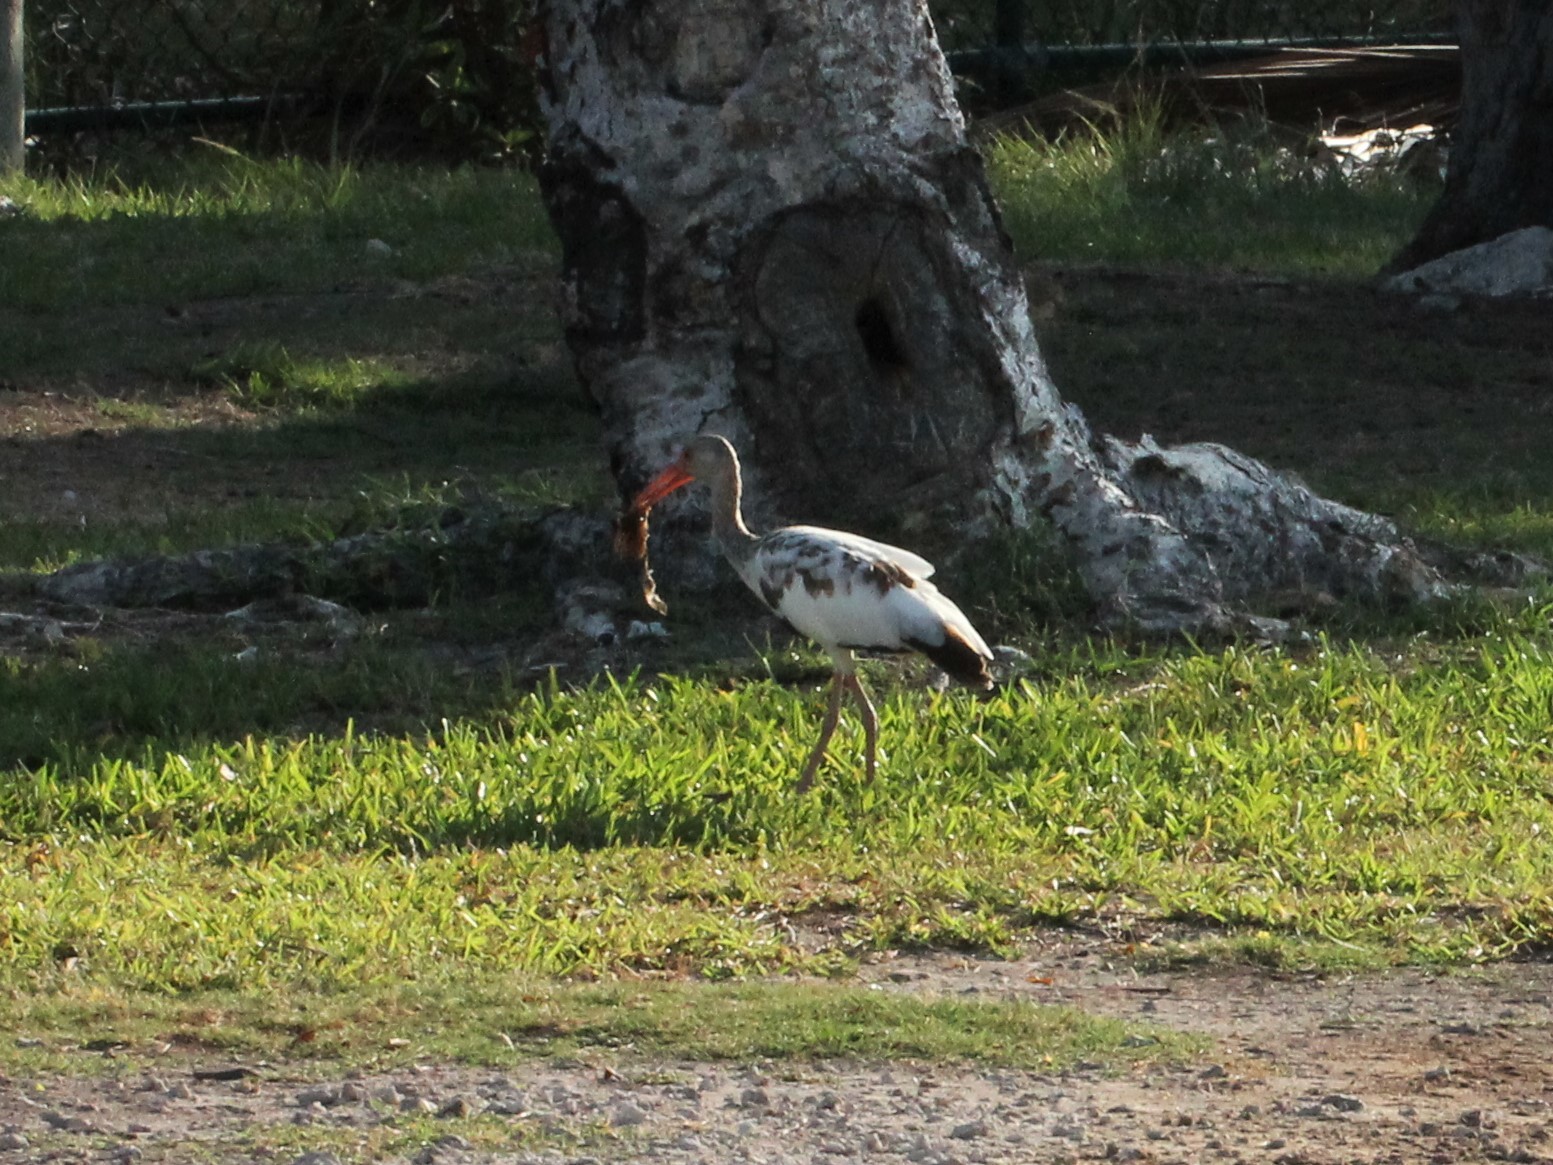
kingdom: Animalia
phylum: Chordata
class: Aves
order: Pelecaniformes
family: Threskiornithidae
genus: Eudocimus
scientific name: Eudocimus albus
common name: White ibis
